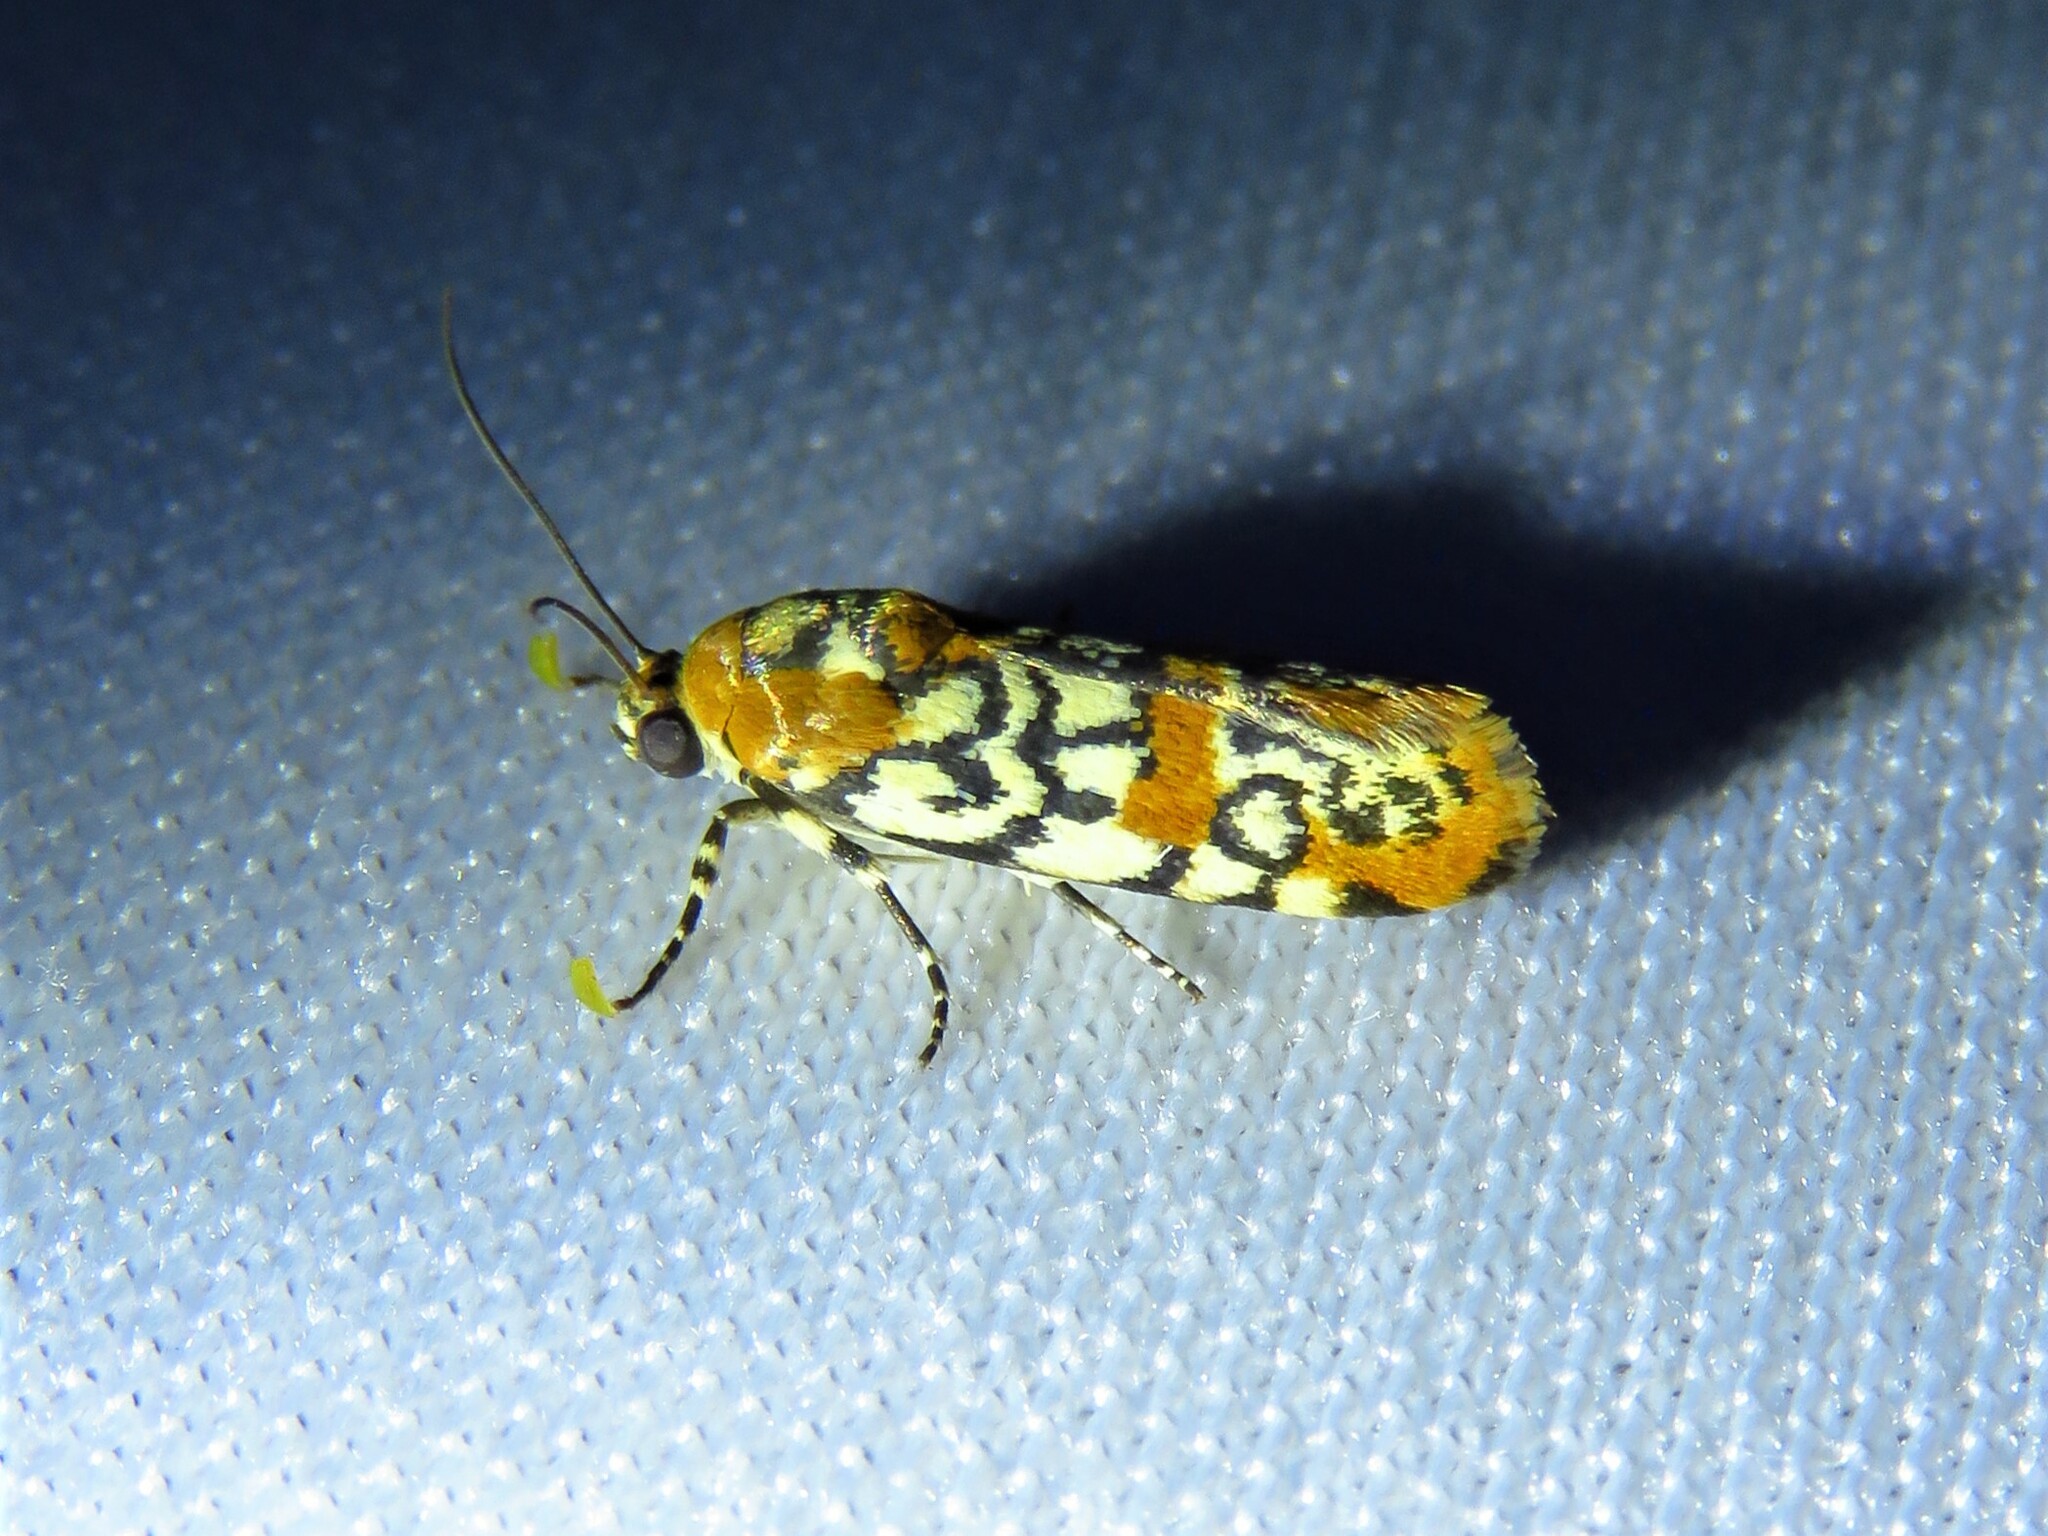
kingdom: Animalia
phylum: Arthropoda
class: Insecta
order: Lepidoptera
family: Noctuidae
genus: Spragueia
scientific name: Spragueia guttata
